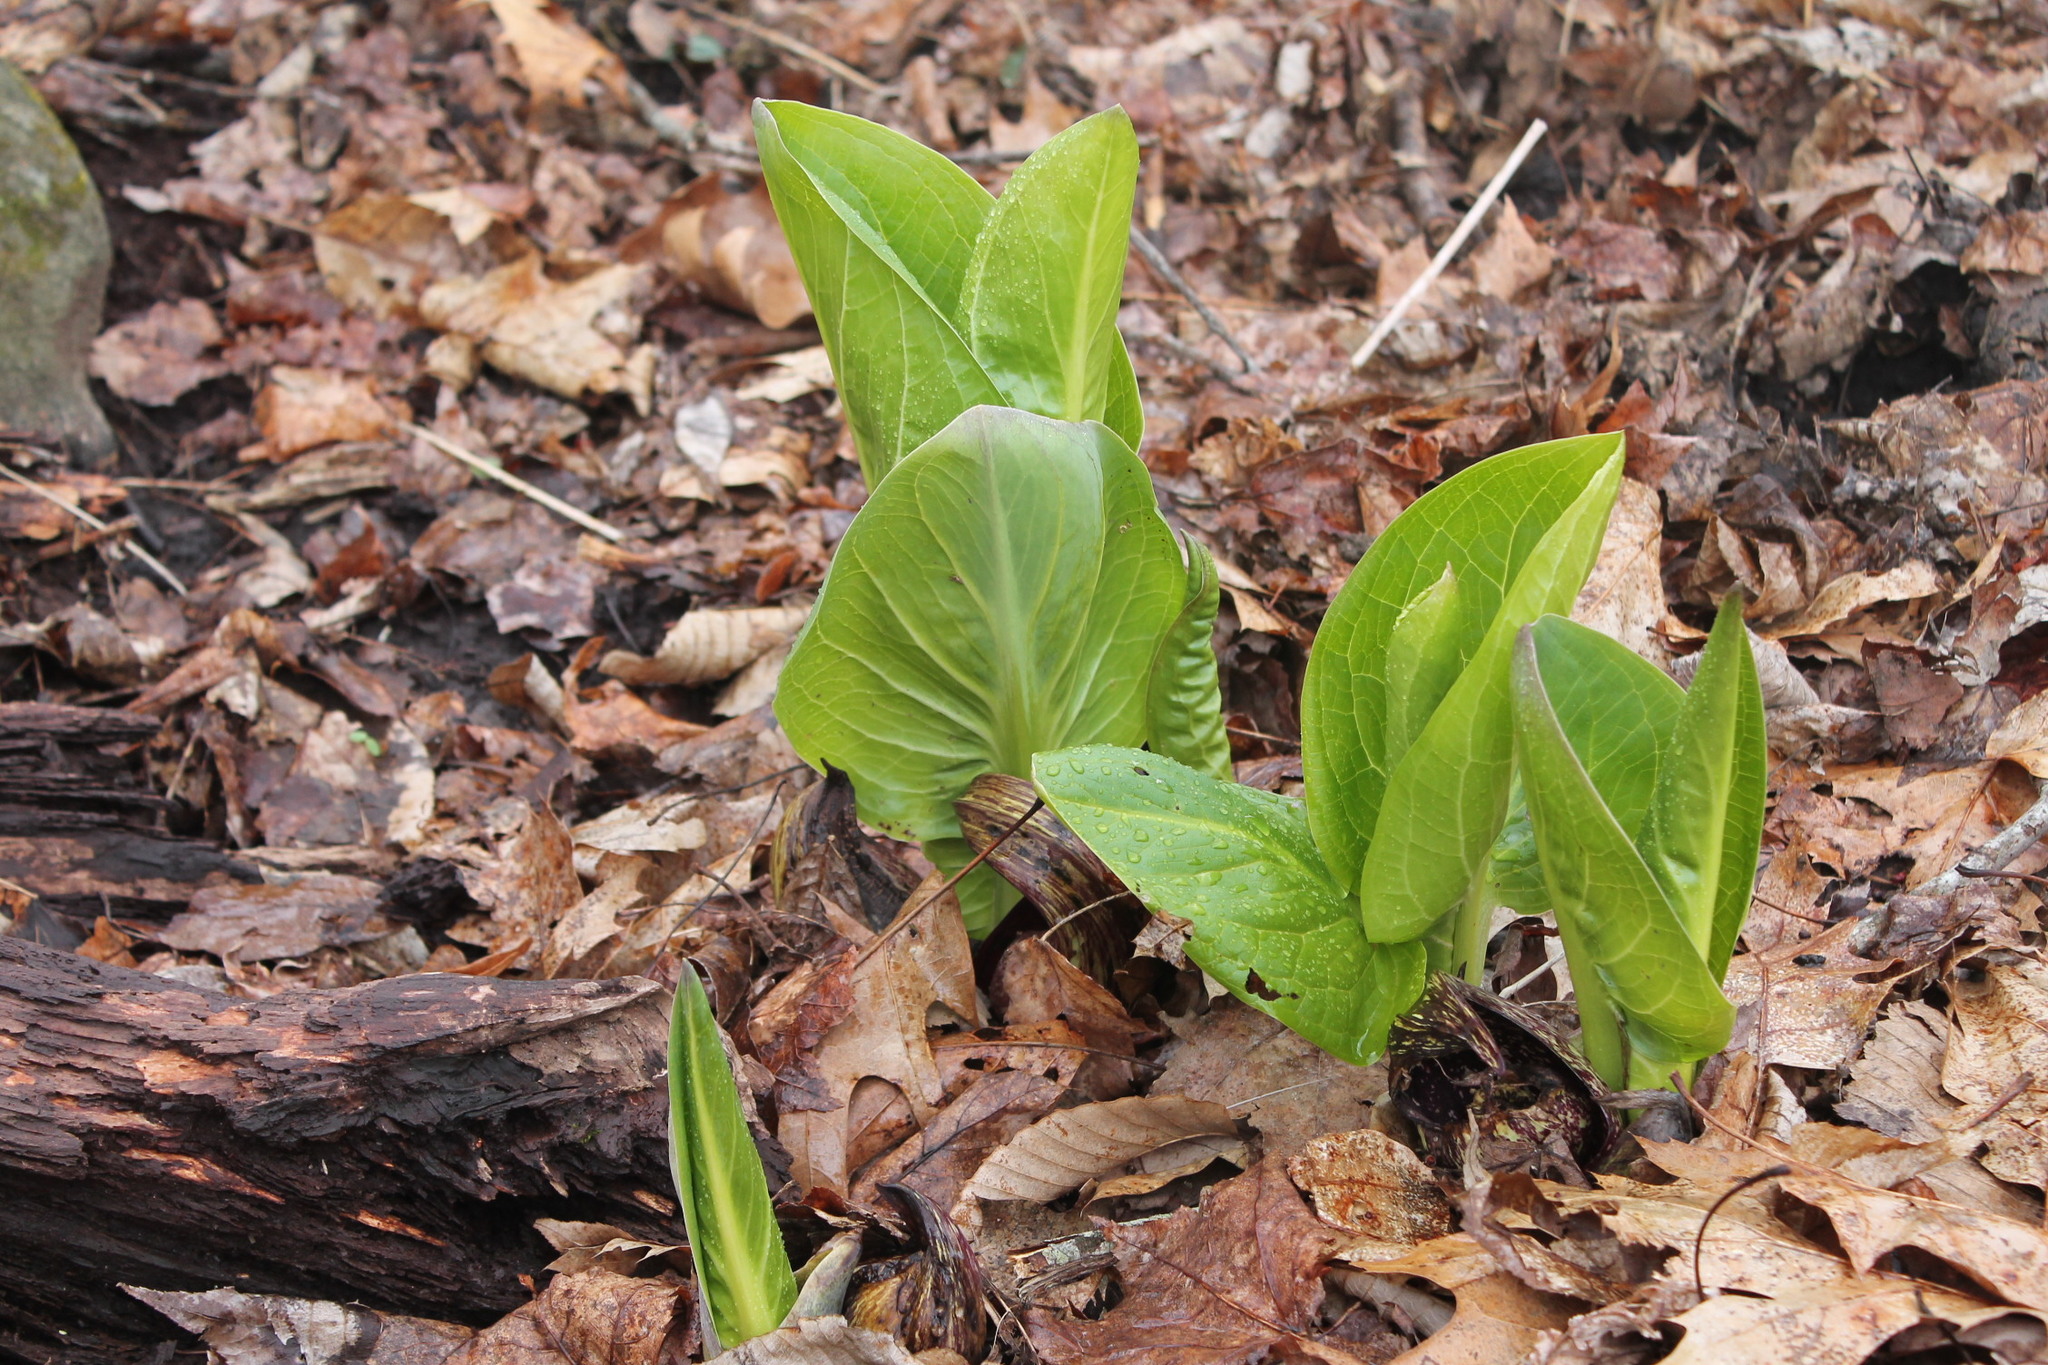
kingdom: Plantae
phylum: Tracheophyta
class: Liliopsida
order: Alismatales
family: Araceae
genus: Symplocarpus
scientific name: Symplocarpus foetidus
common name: Eastern skunk cabbage
